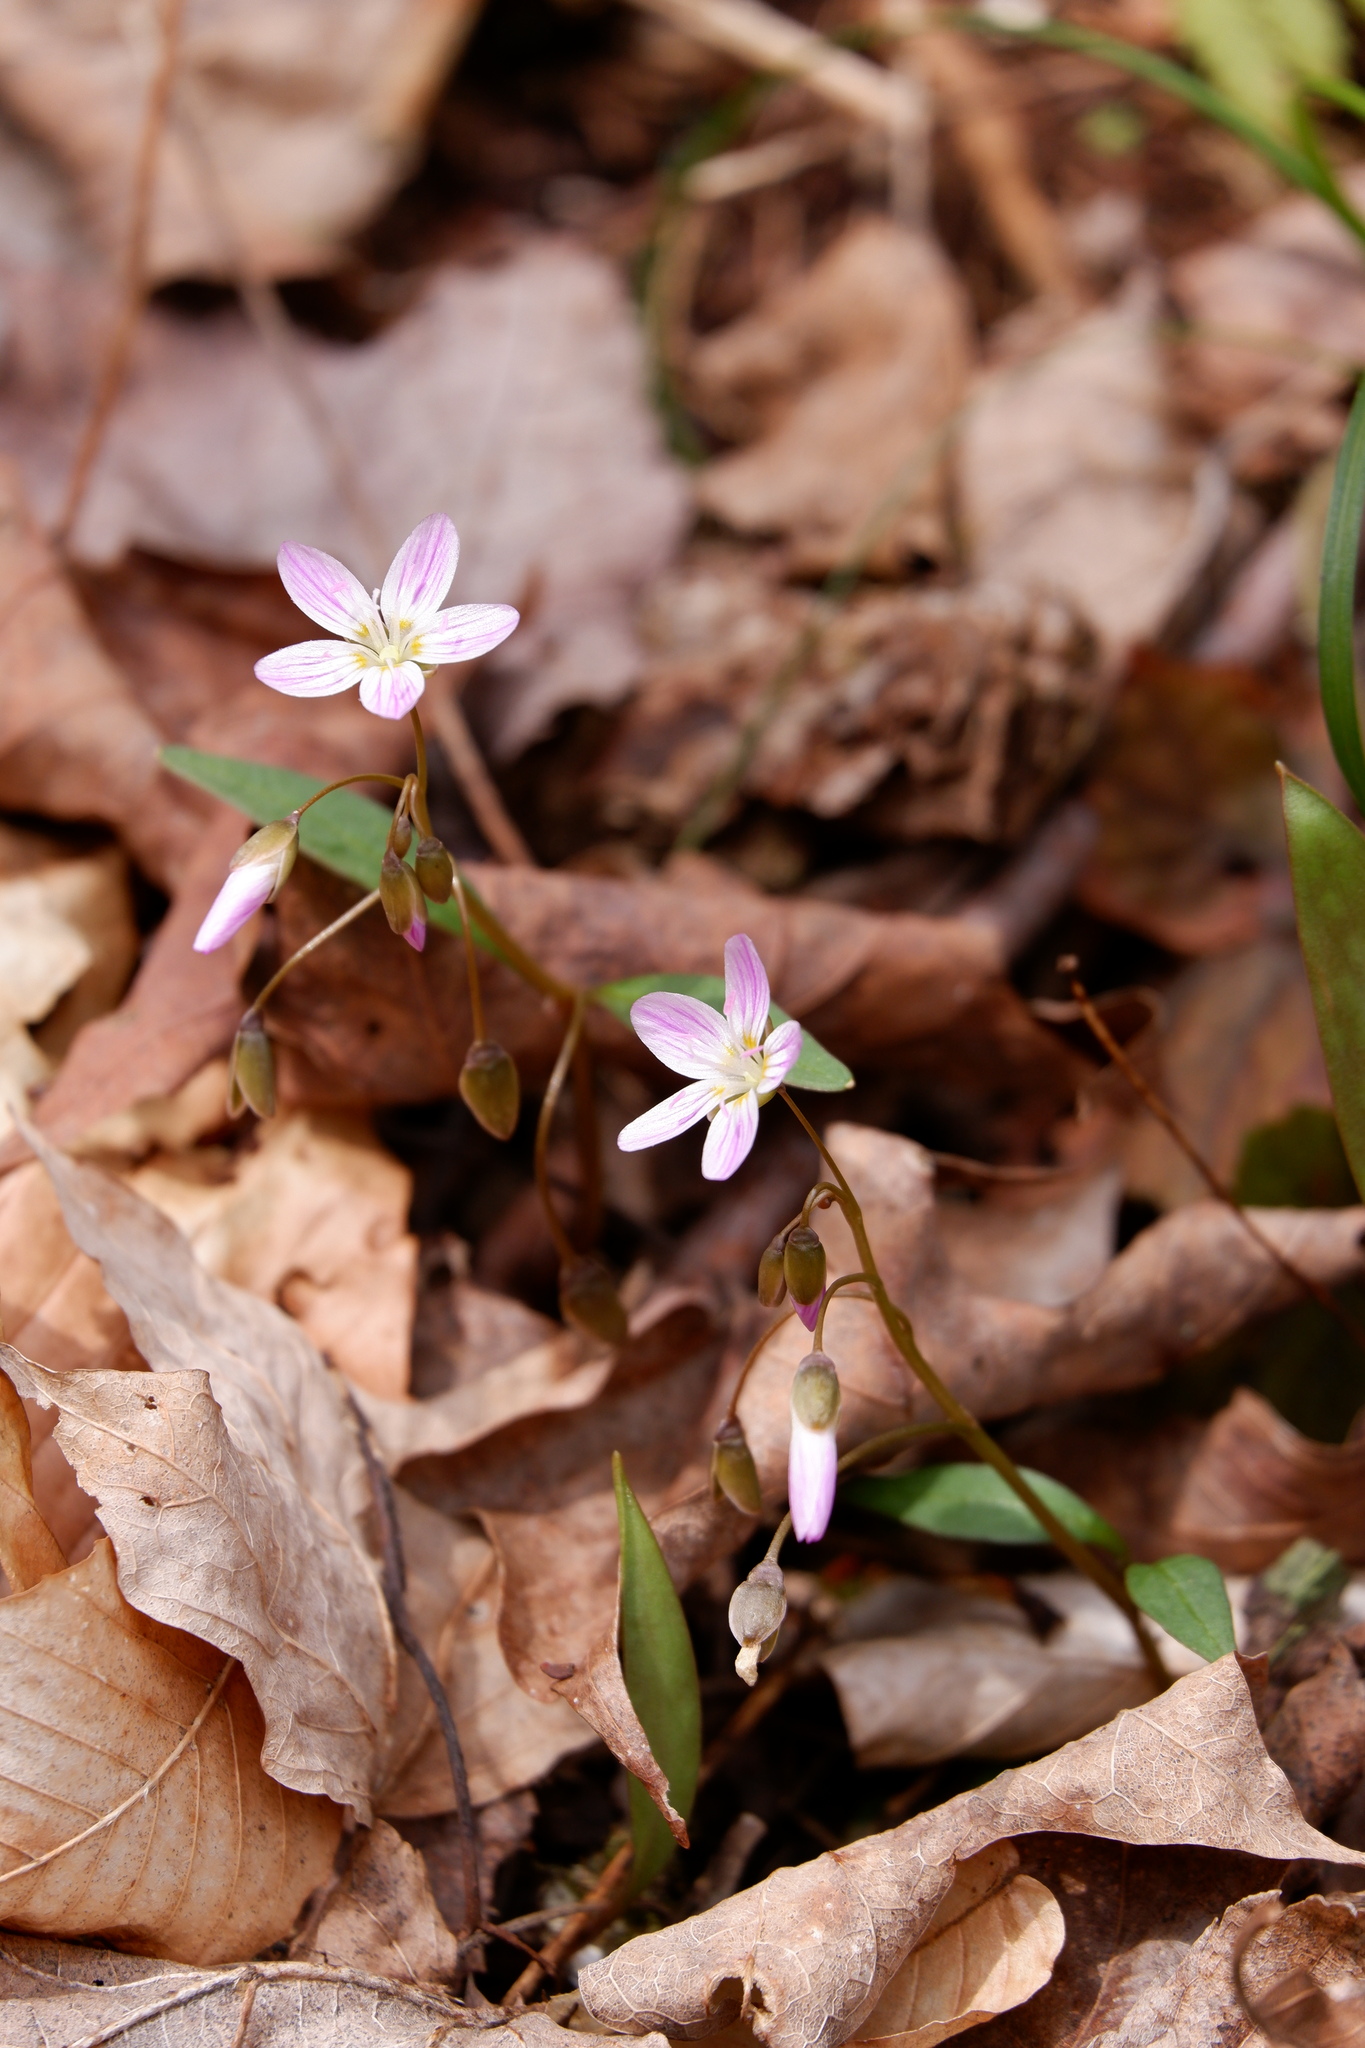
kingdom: Plantae
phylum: Tracheophyta
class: Magnoliopsida
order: Caryophyllales
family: Montiaceae
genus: Claytonia
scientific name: Claytonia caroliniana
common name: Carolina spring beauty
